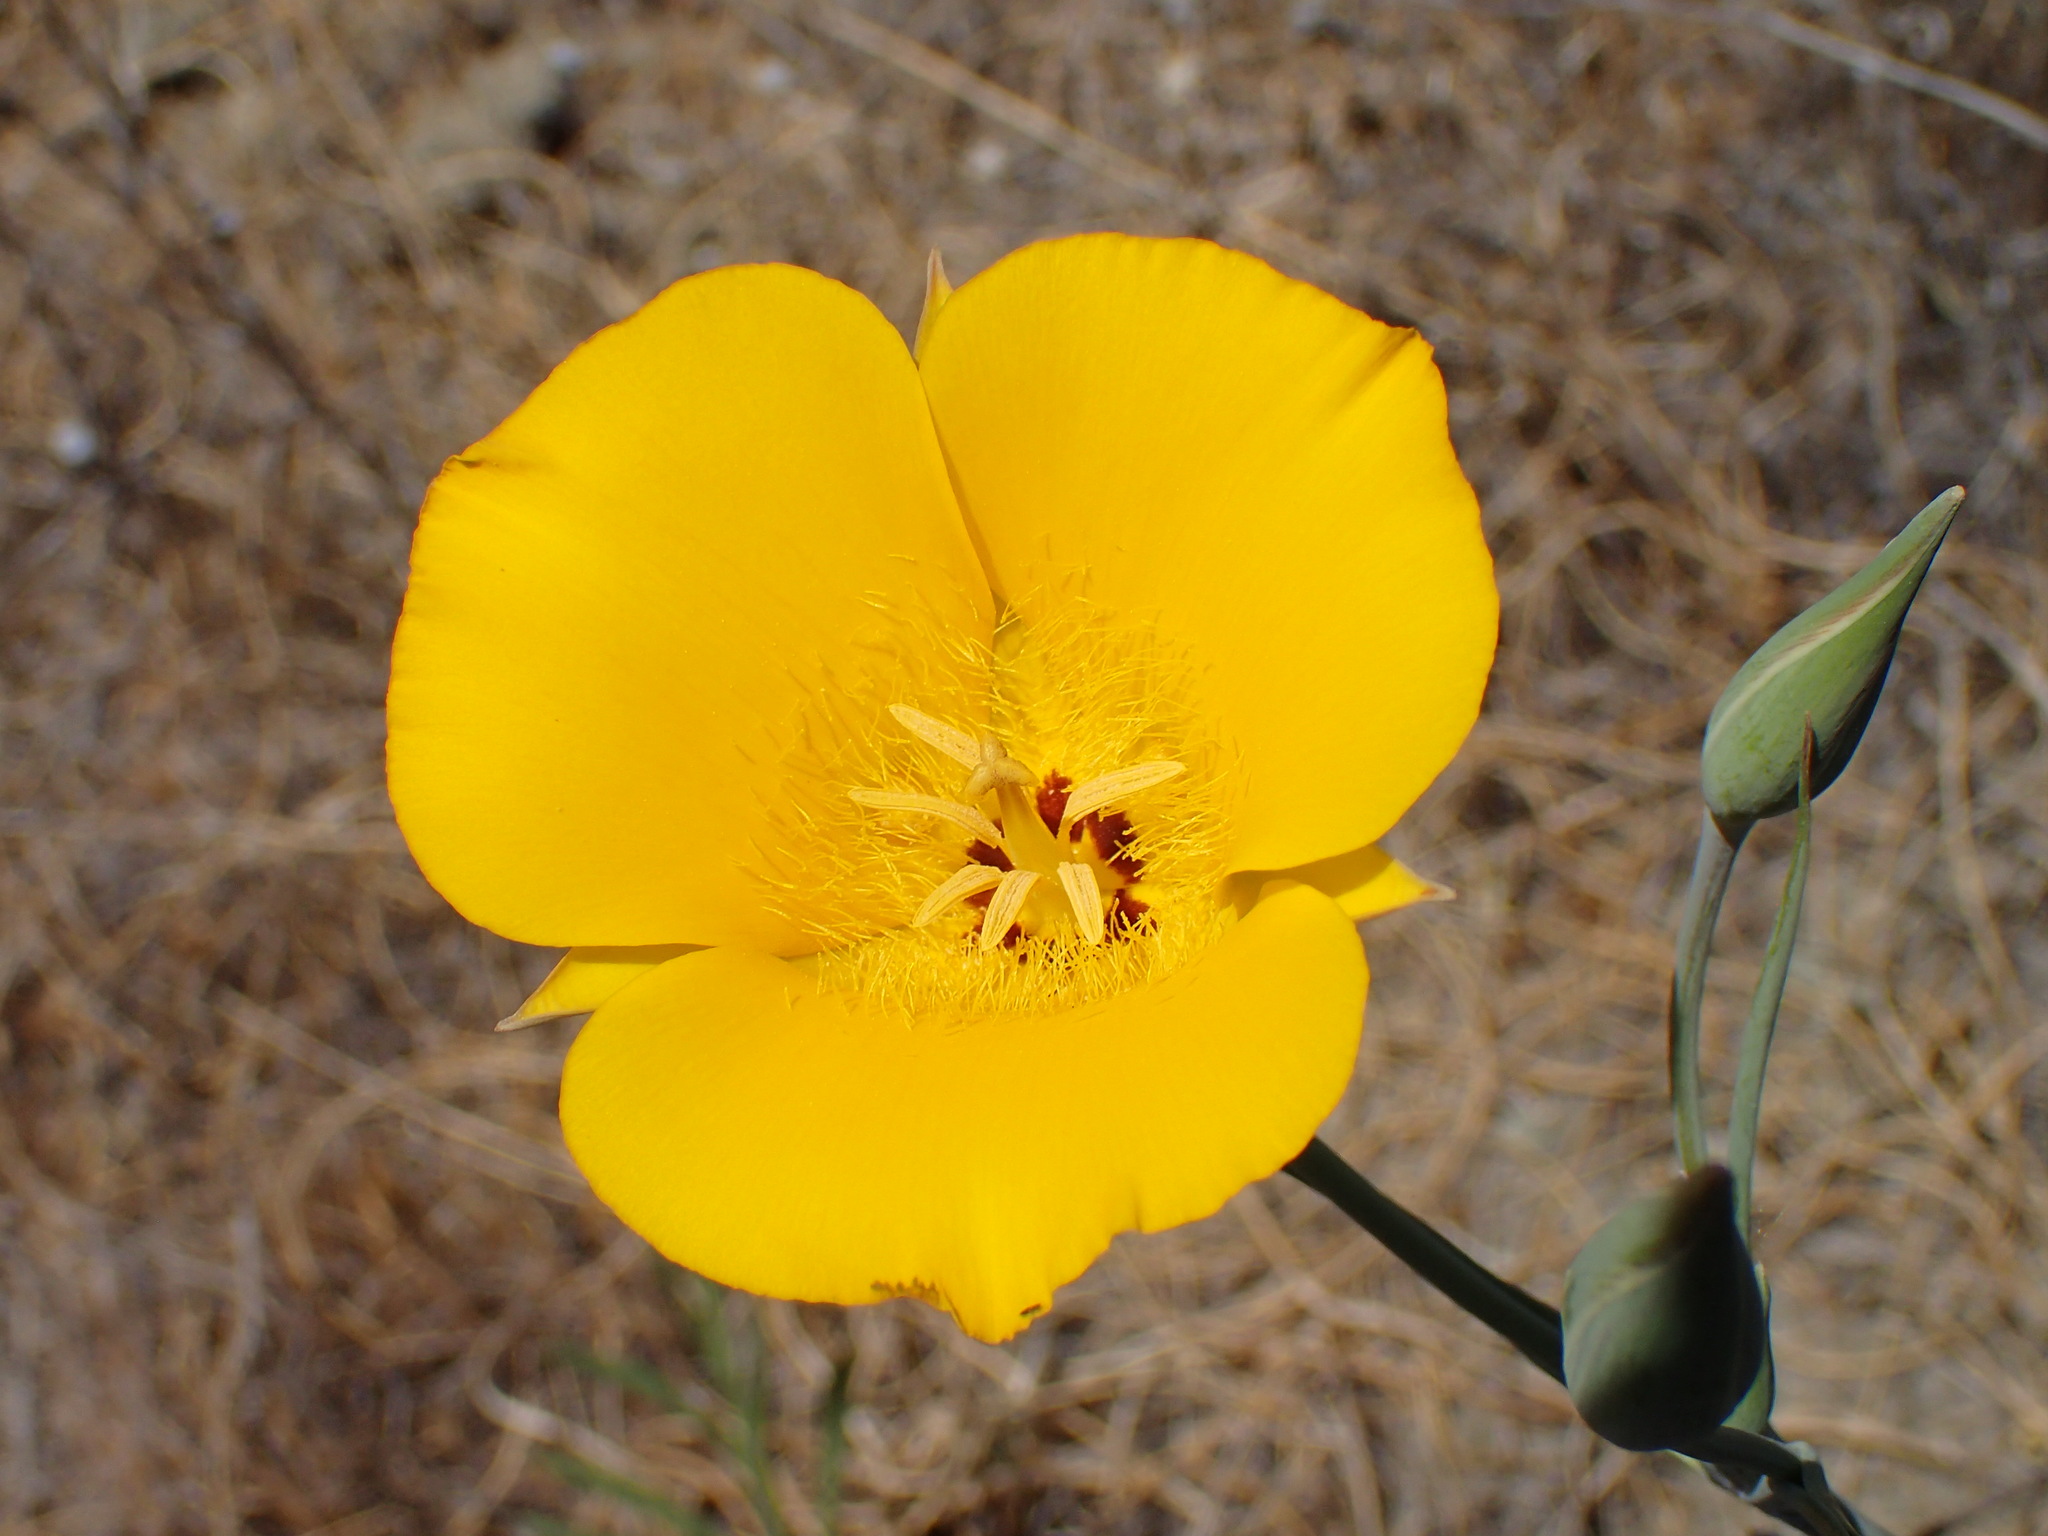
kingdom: Plantae
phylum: Tracheophyta
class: Liliopsida
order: Liliales
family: Liliaceae
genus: Calochortus
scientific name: Calochortus clavatus
